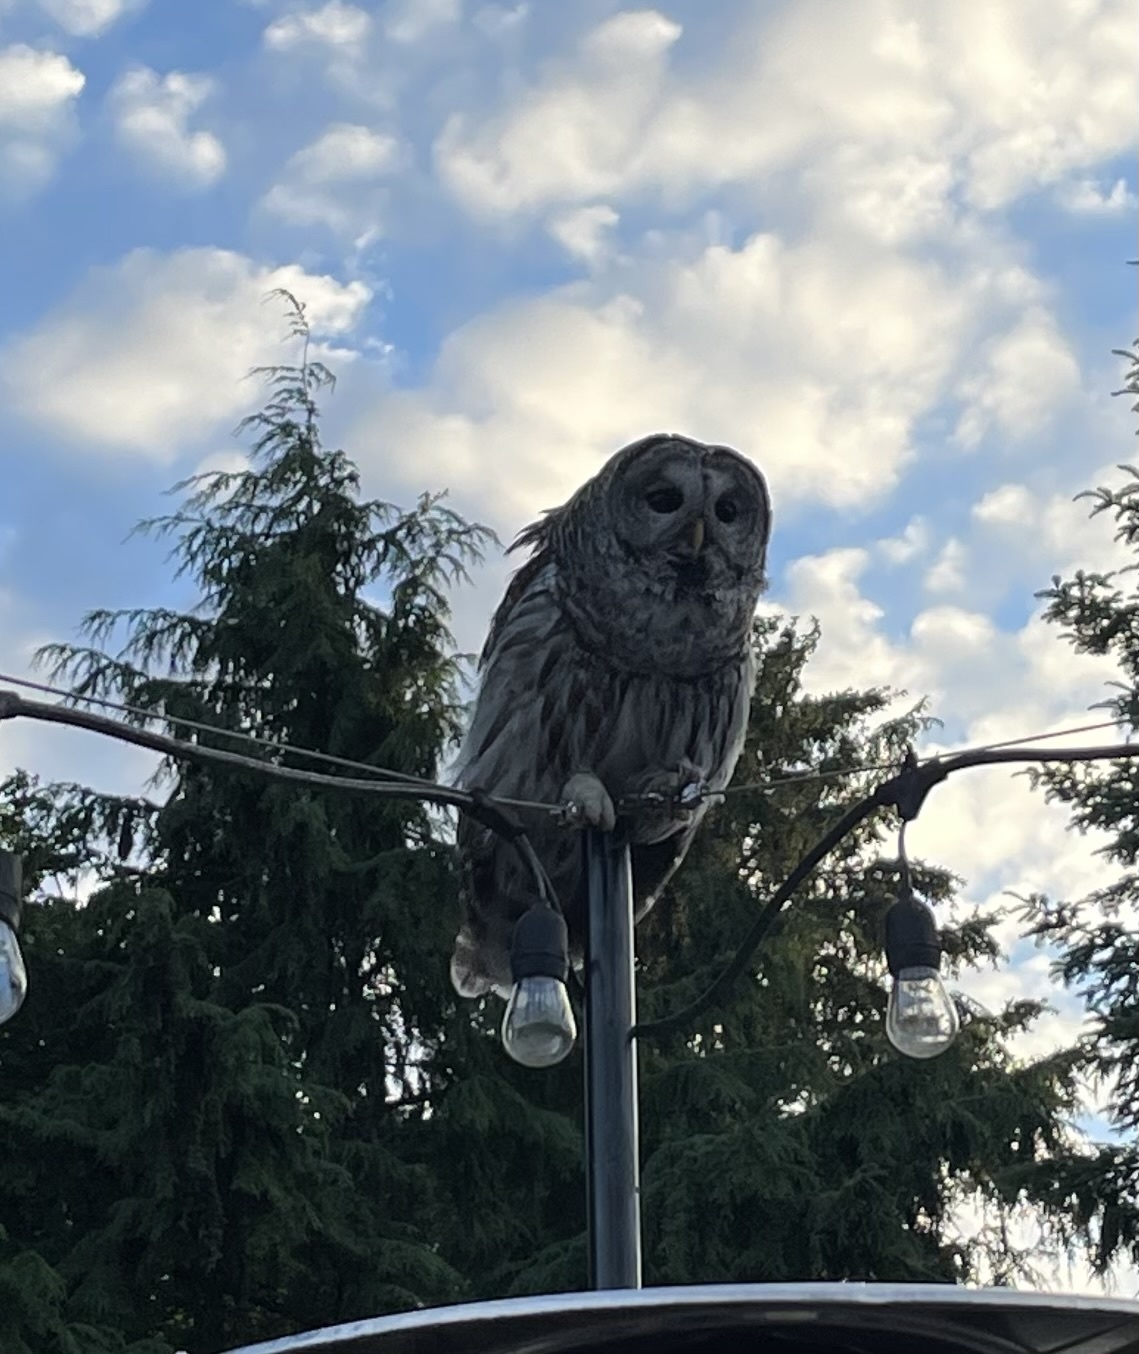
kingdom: Animalia
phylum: Chordata
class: Aves
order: Strigiformes
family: Strigidae
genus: Strix
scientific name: Strix varia
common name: Barred owl
